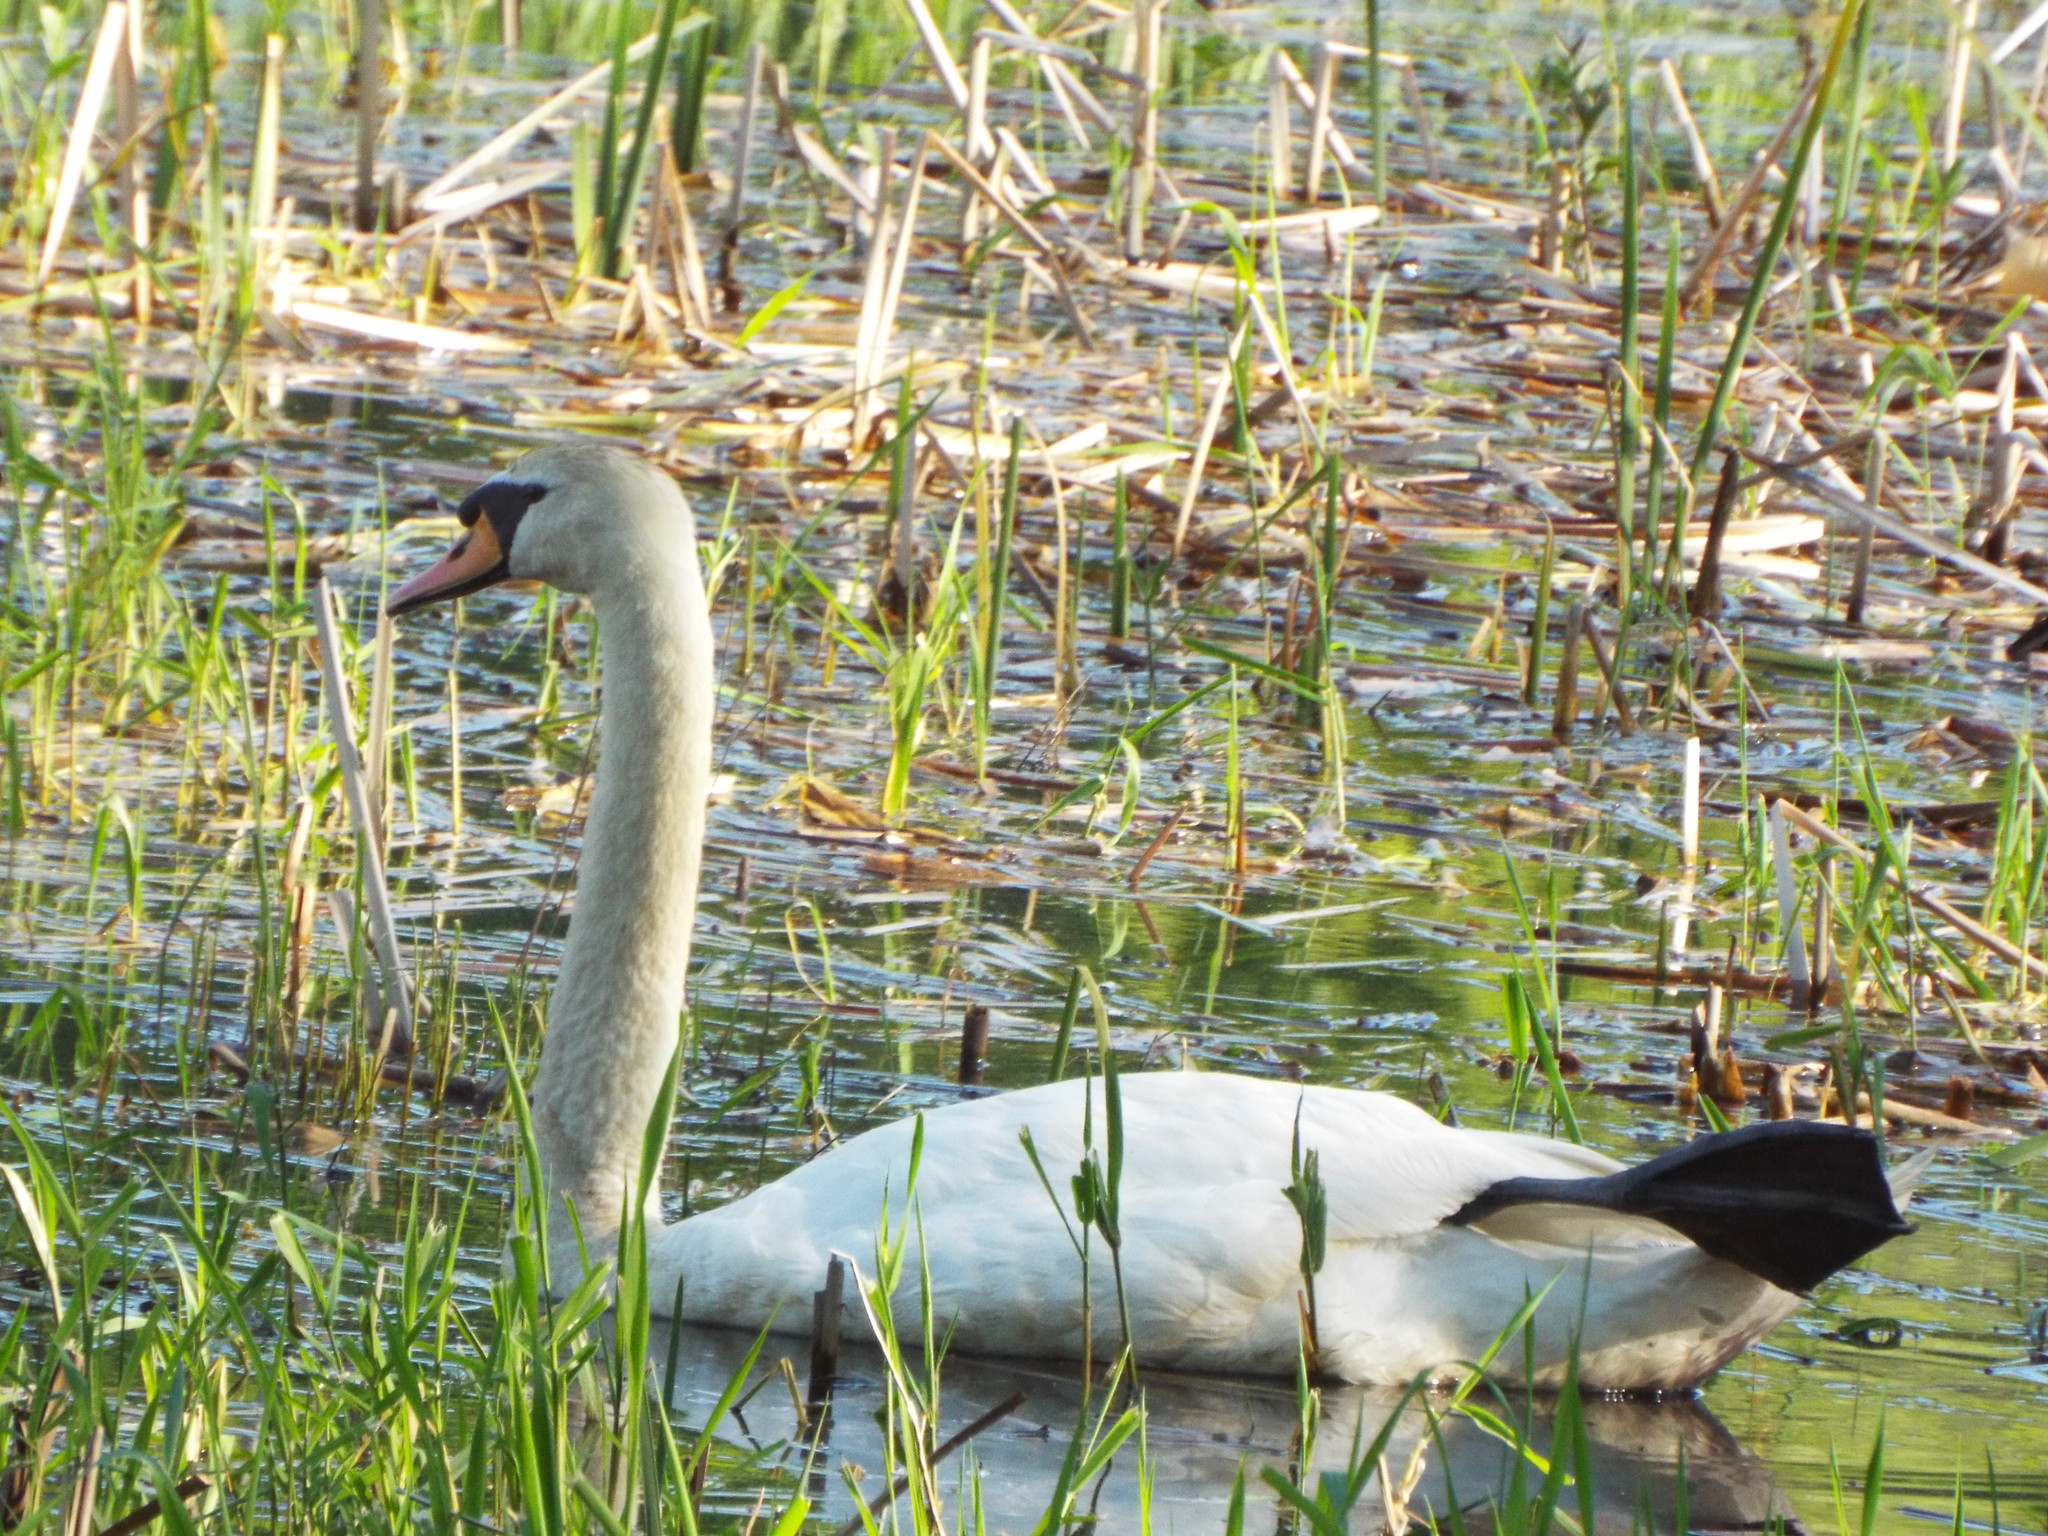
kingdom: Animalia
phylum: Chordata
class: Aves
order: Anseriformes
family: Anatidae
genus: Cygnus
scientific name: Cygnus olor
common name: Mute swan
